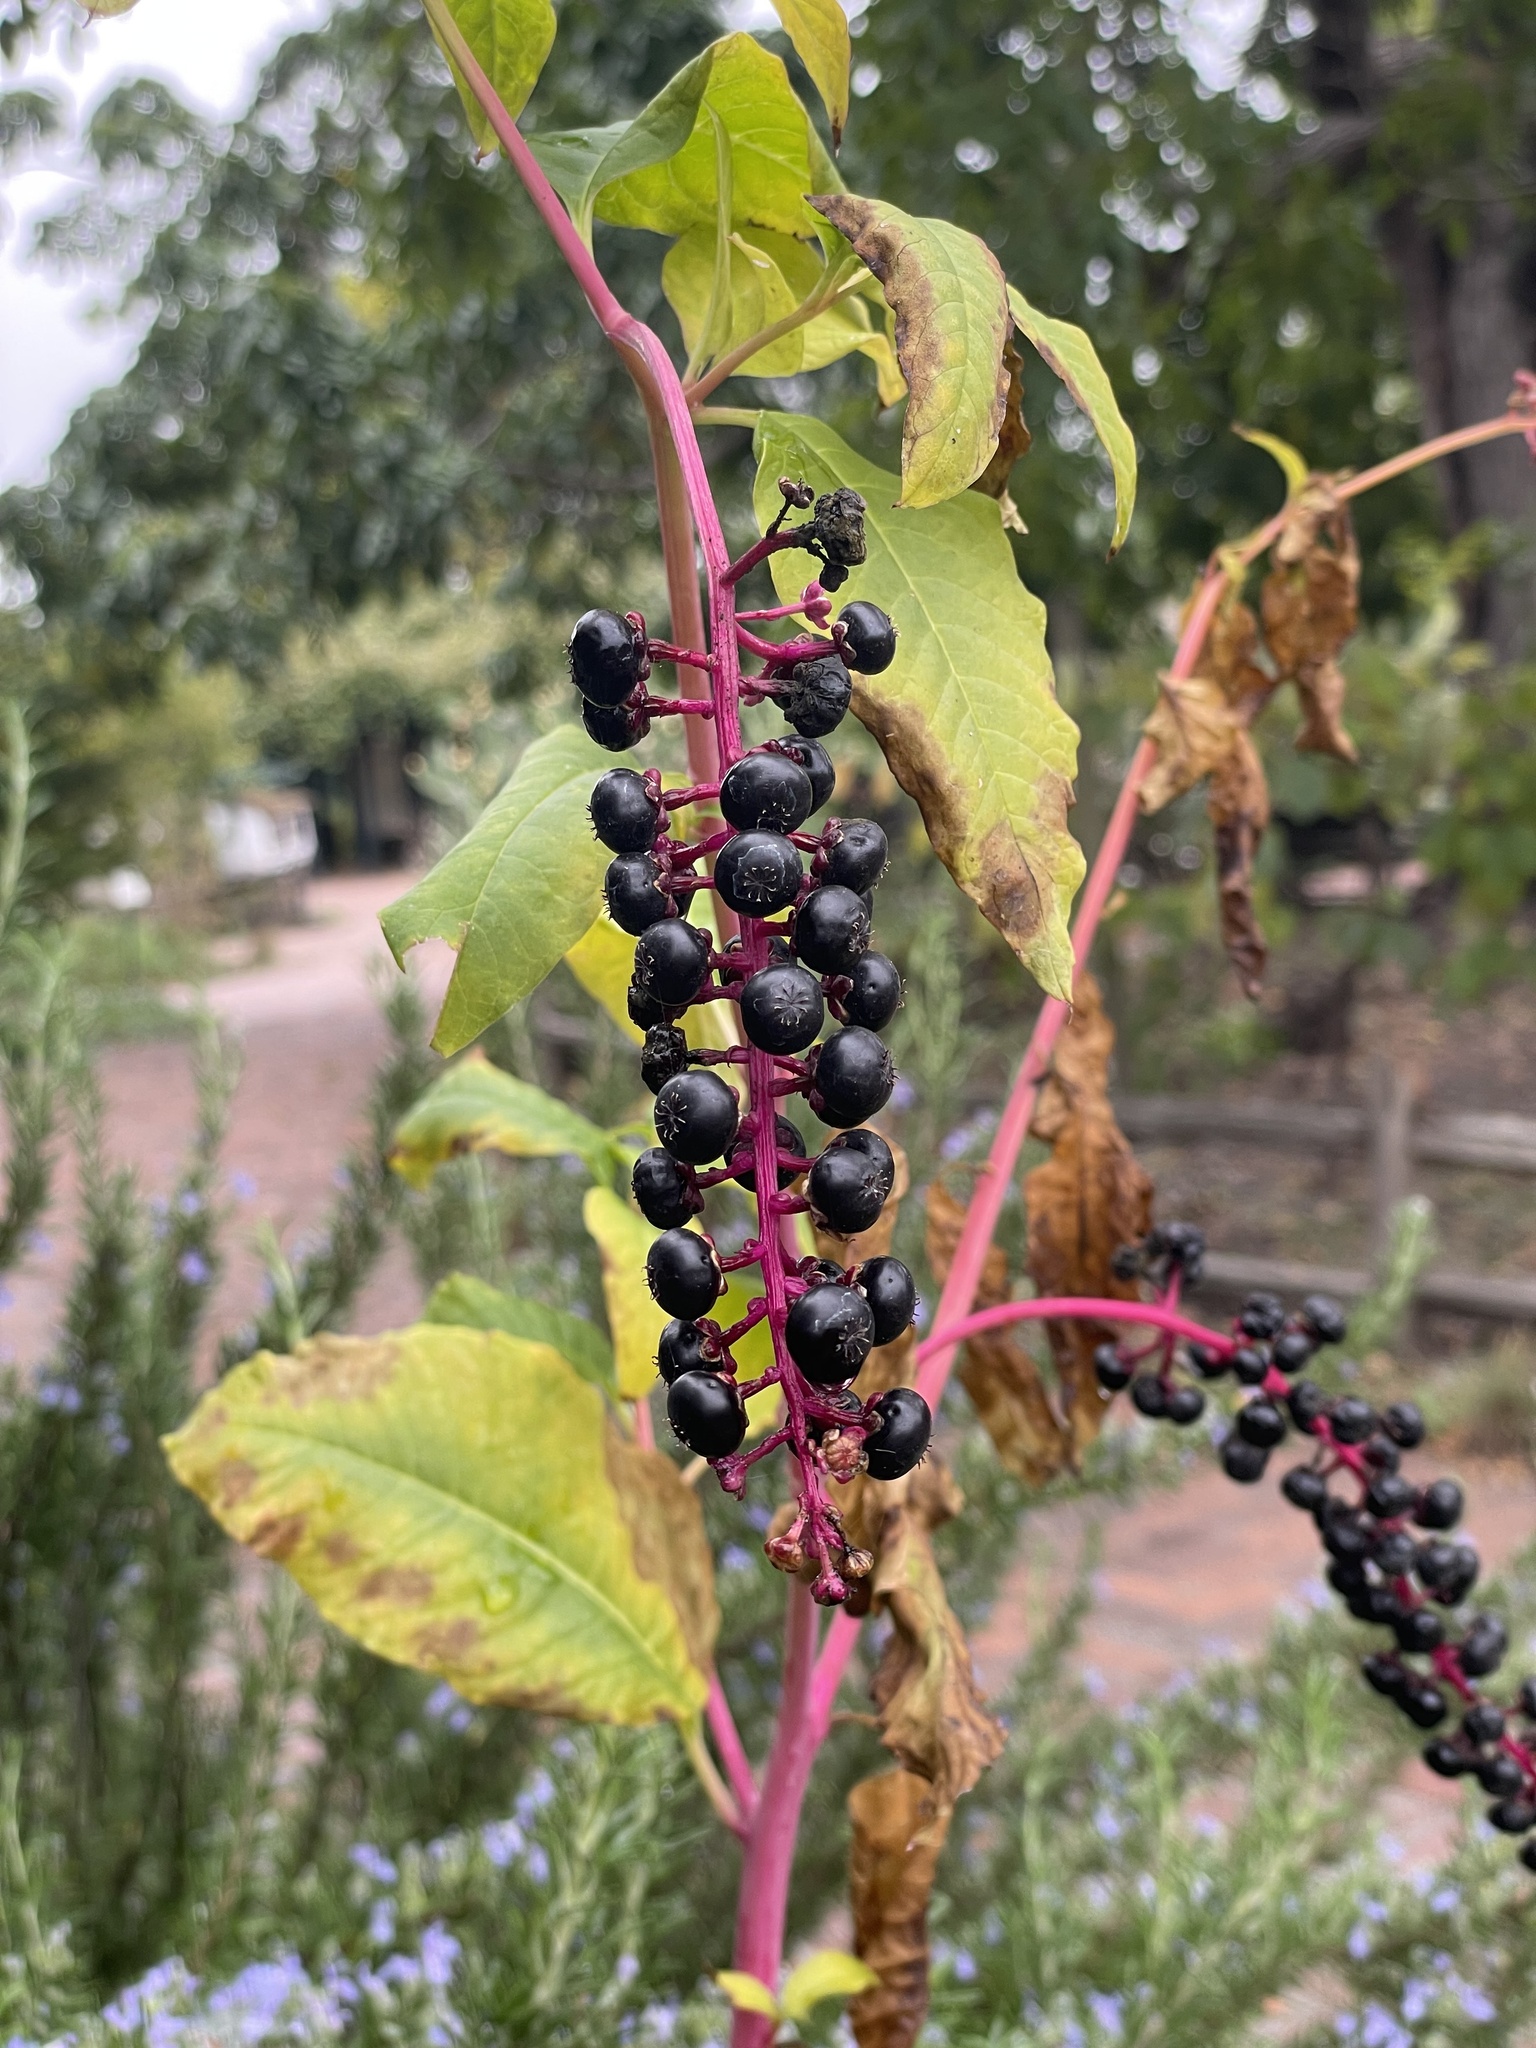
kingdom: Plantae
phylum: Tracheophyta
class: Magnoliopsida
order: Caryophyllales
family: Phytolaccaceae
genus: Phytolacca
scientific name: Phytolacca americana
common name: American pokeweed
